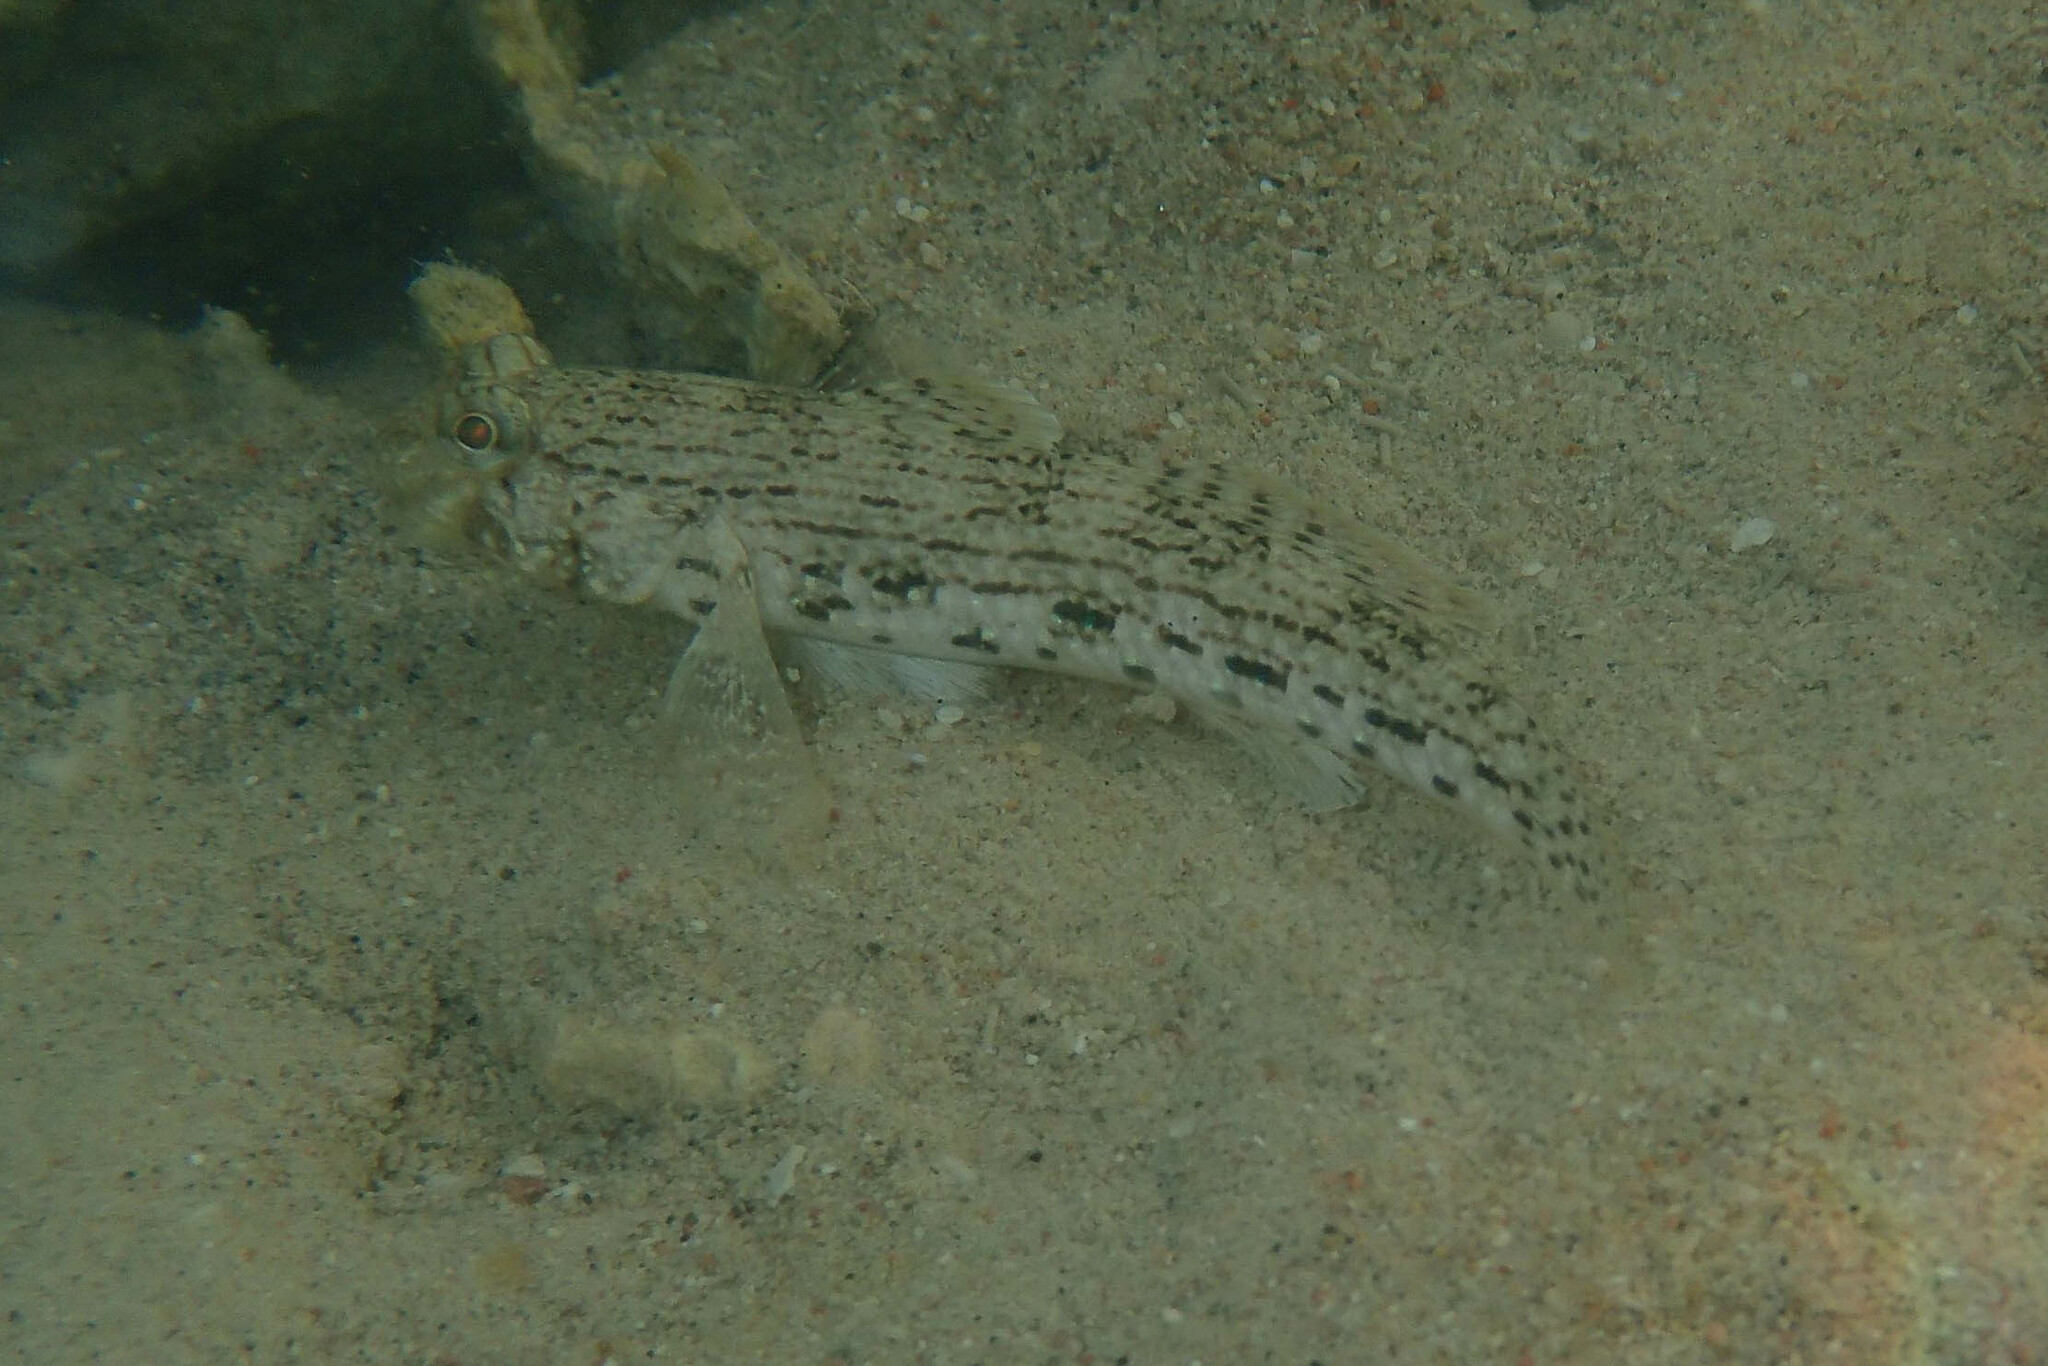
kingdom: Animalia
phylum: Chordata
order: Perciformes
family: Gobiidae
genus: Istigobius
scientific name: Istigobius ornatus
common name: Ornate goby
